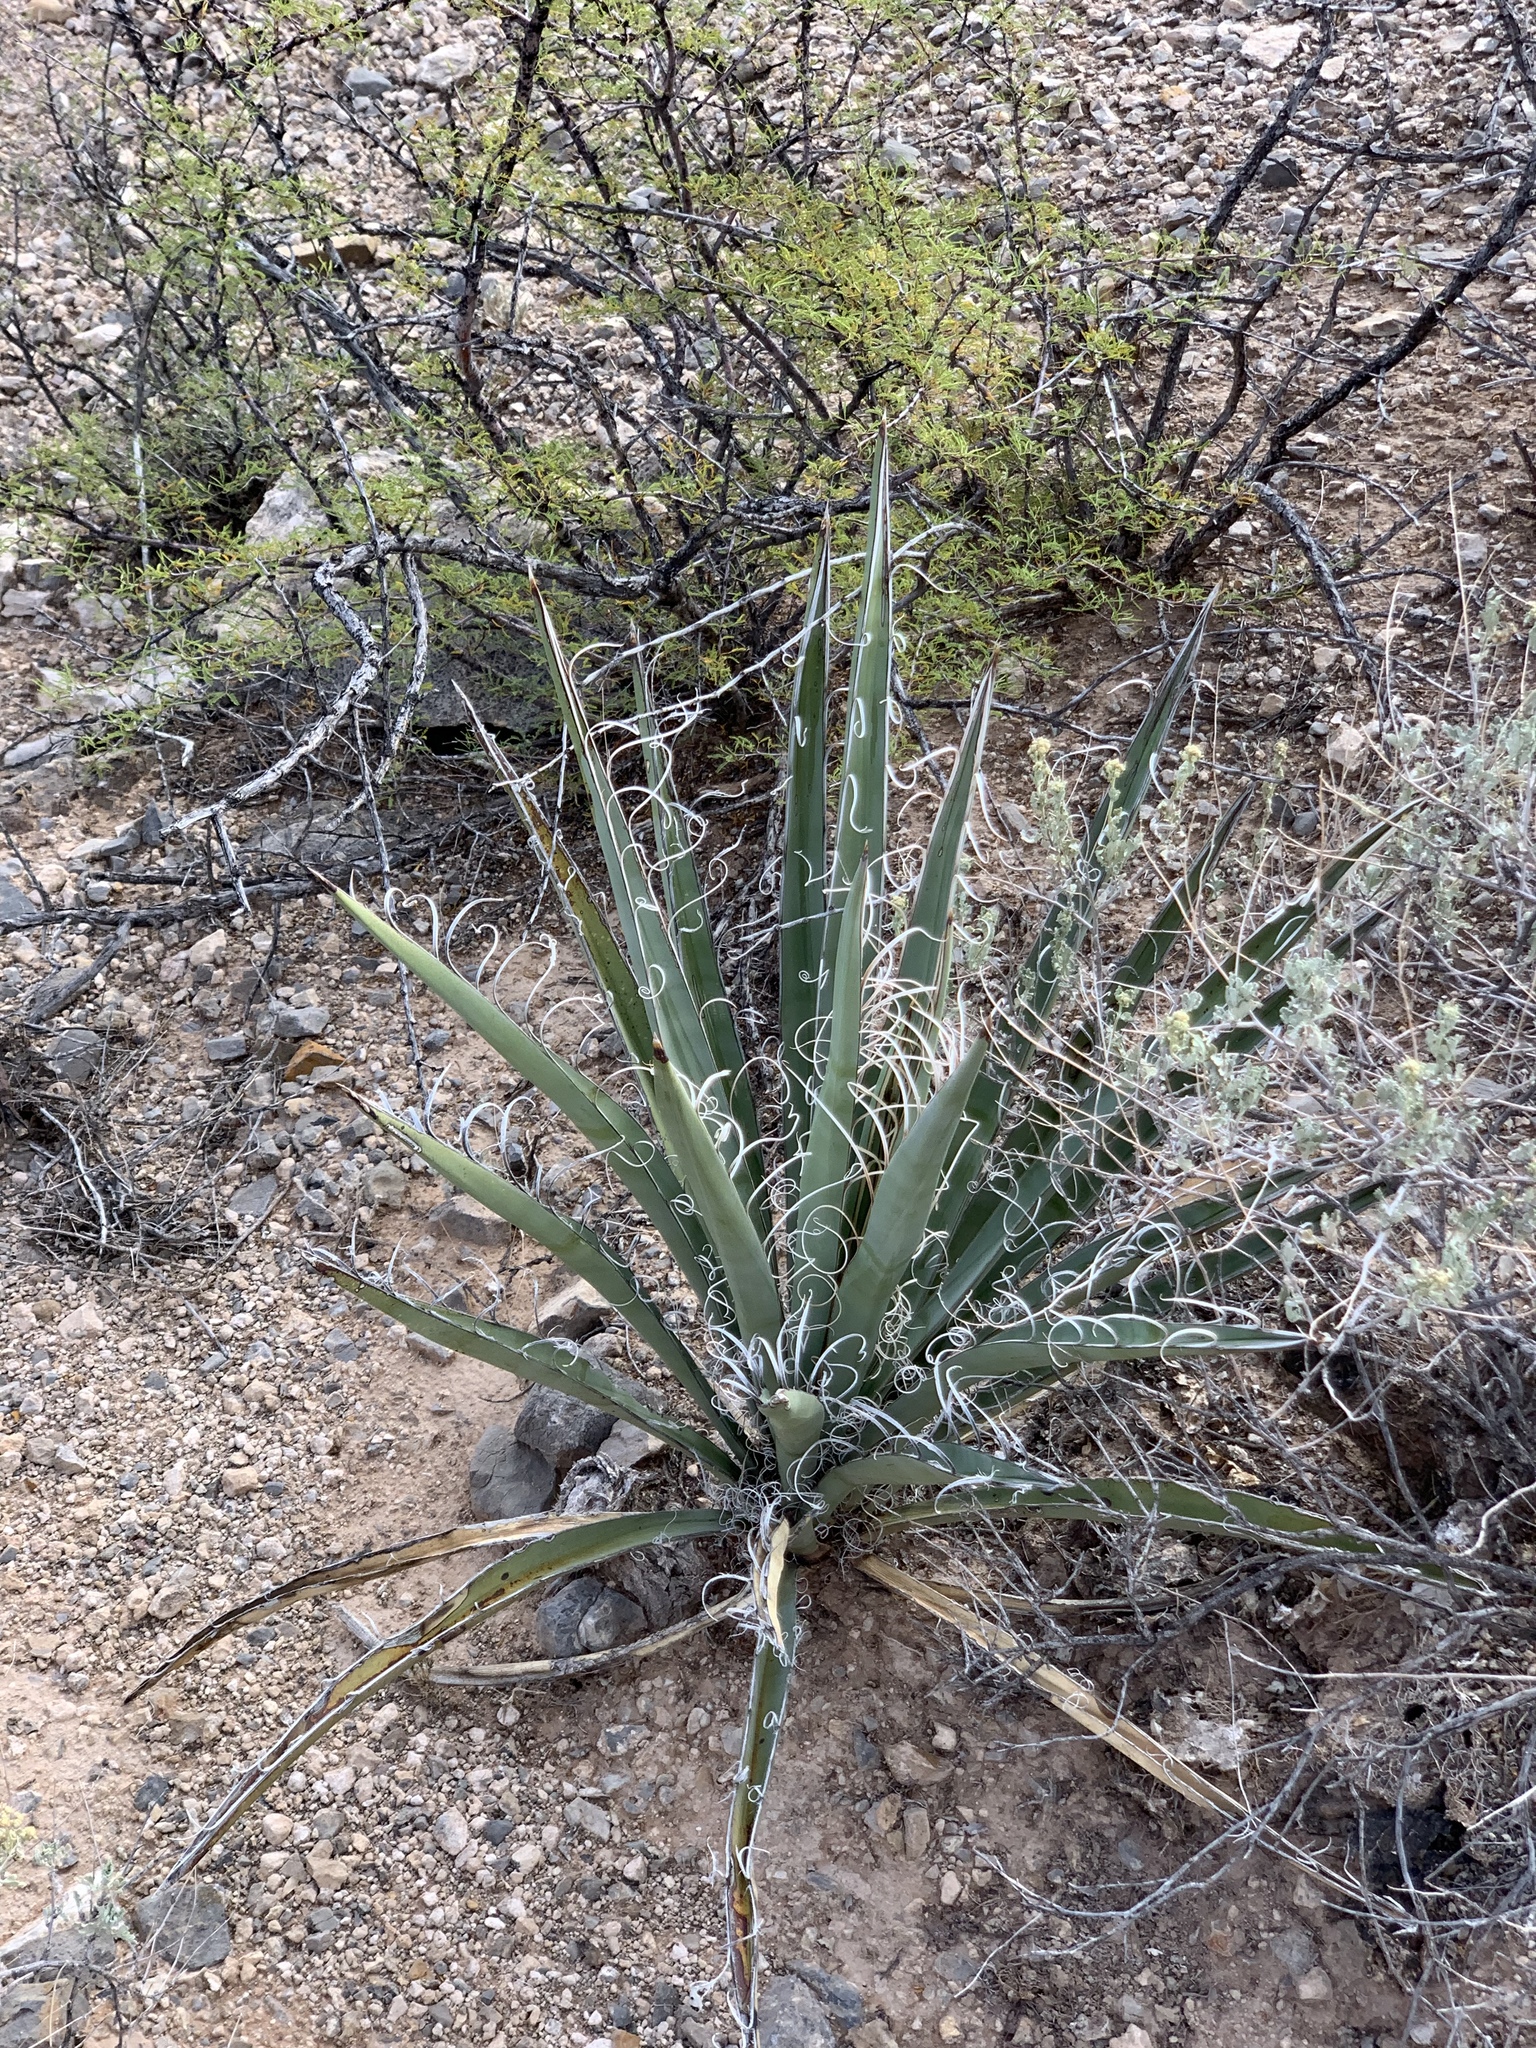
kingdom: Plantae
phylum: Tracheophyta
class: Liliopsida
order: Asparagales
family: Asparagaceae
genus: Yucca
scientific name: Yucca baccata
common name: Banana yucca
